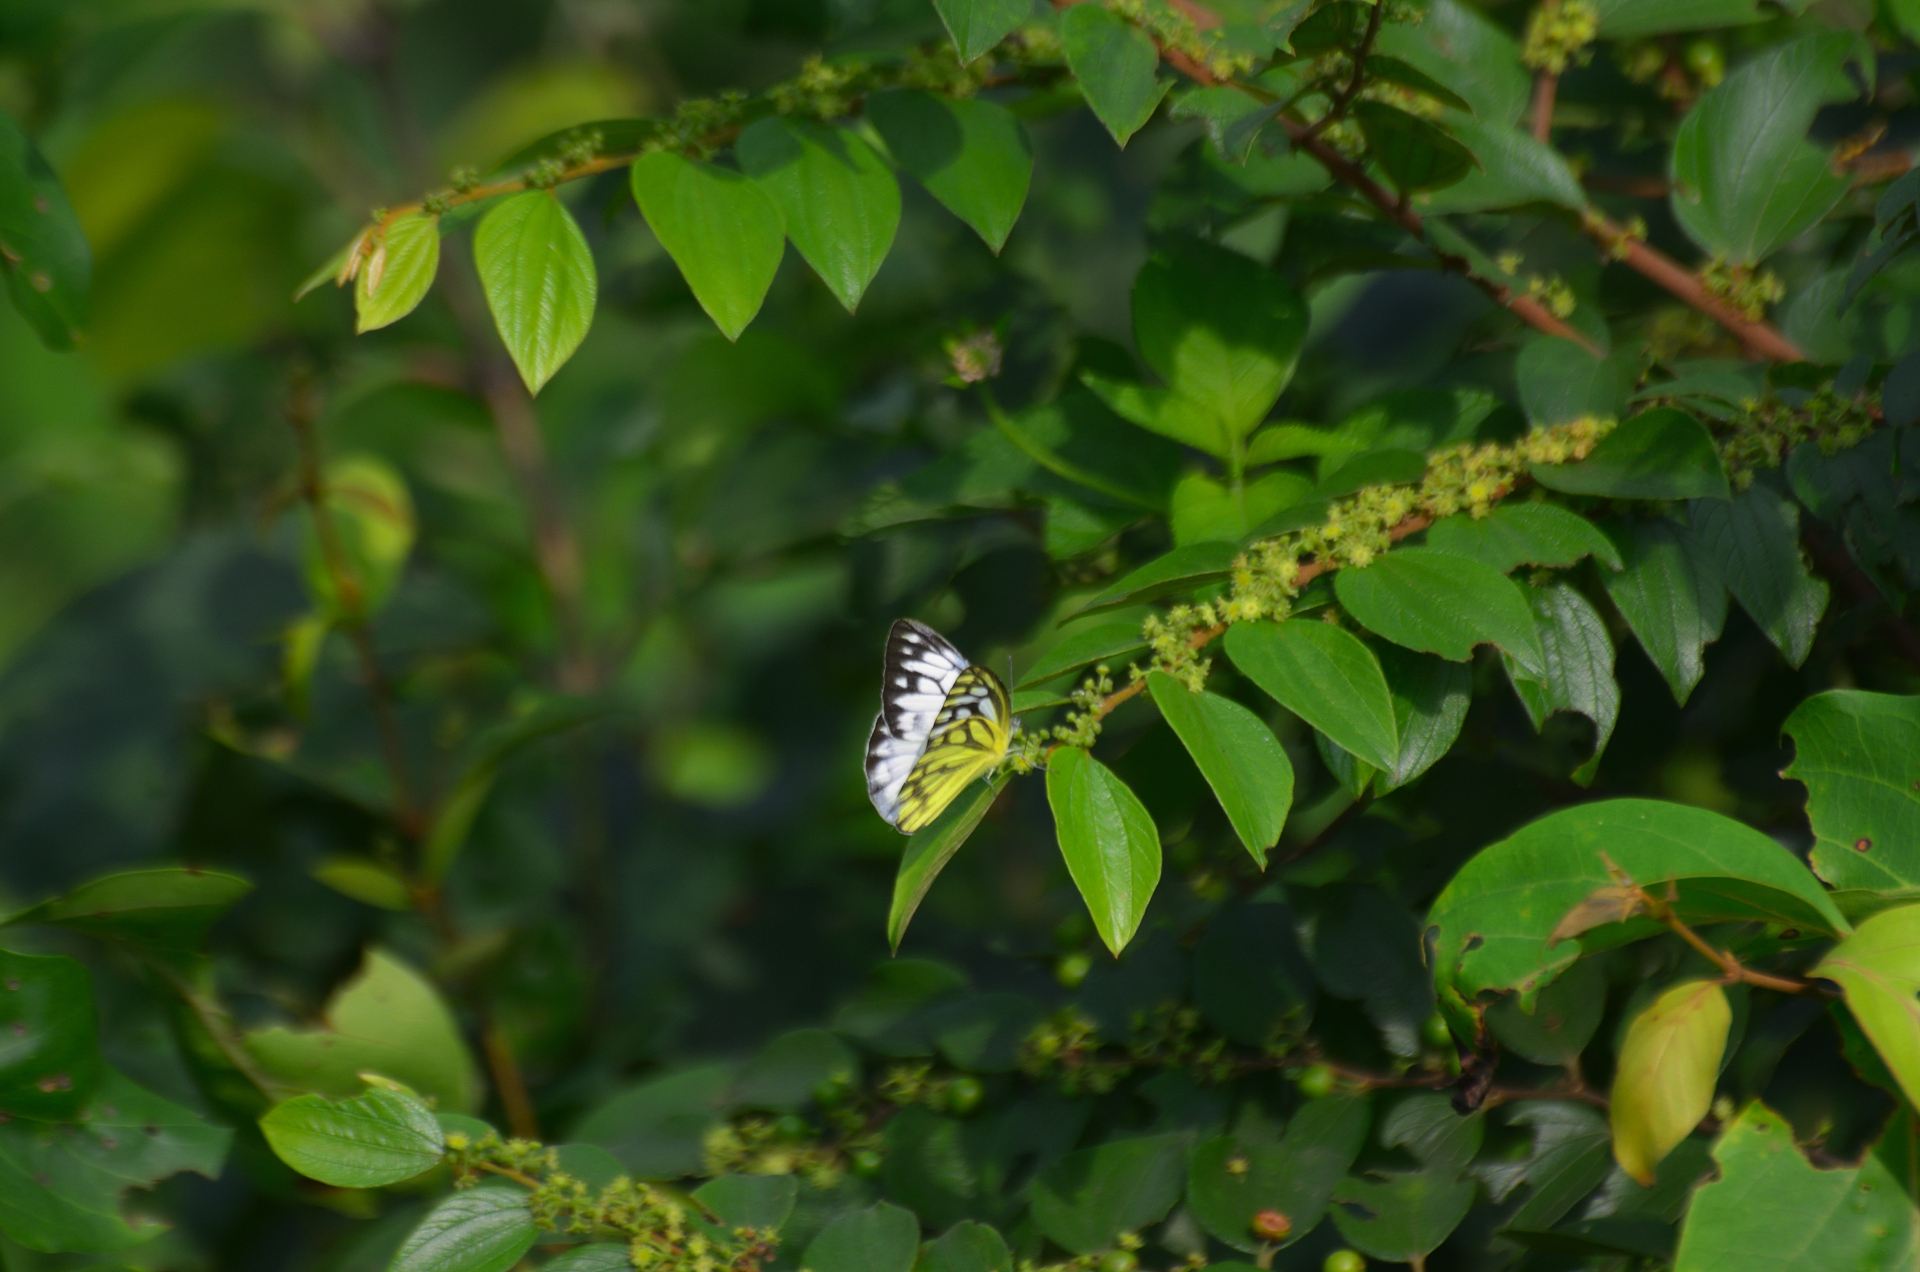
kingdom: Animalia
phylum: Arthropoda
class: Insecta
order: Lepidoptera
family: Pieridae
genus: Cepora
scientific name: Cepora nerissa
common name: Common gull
